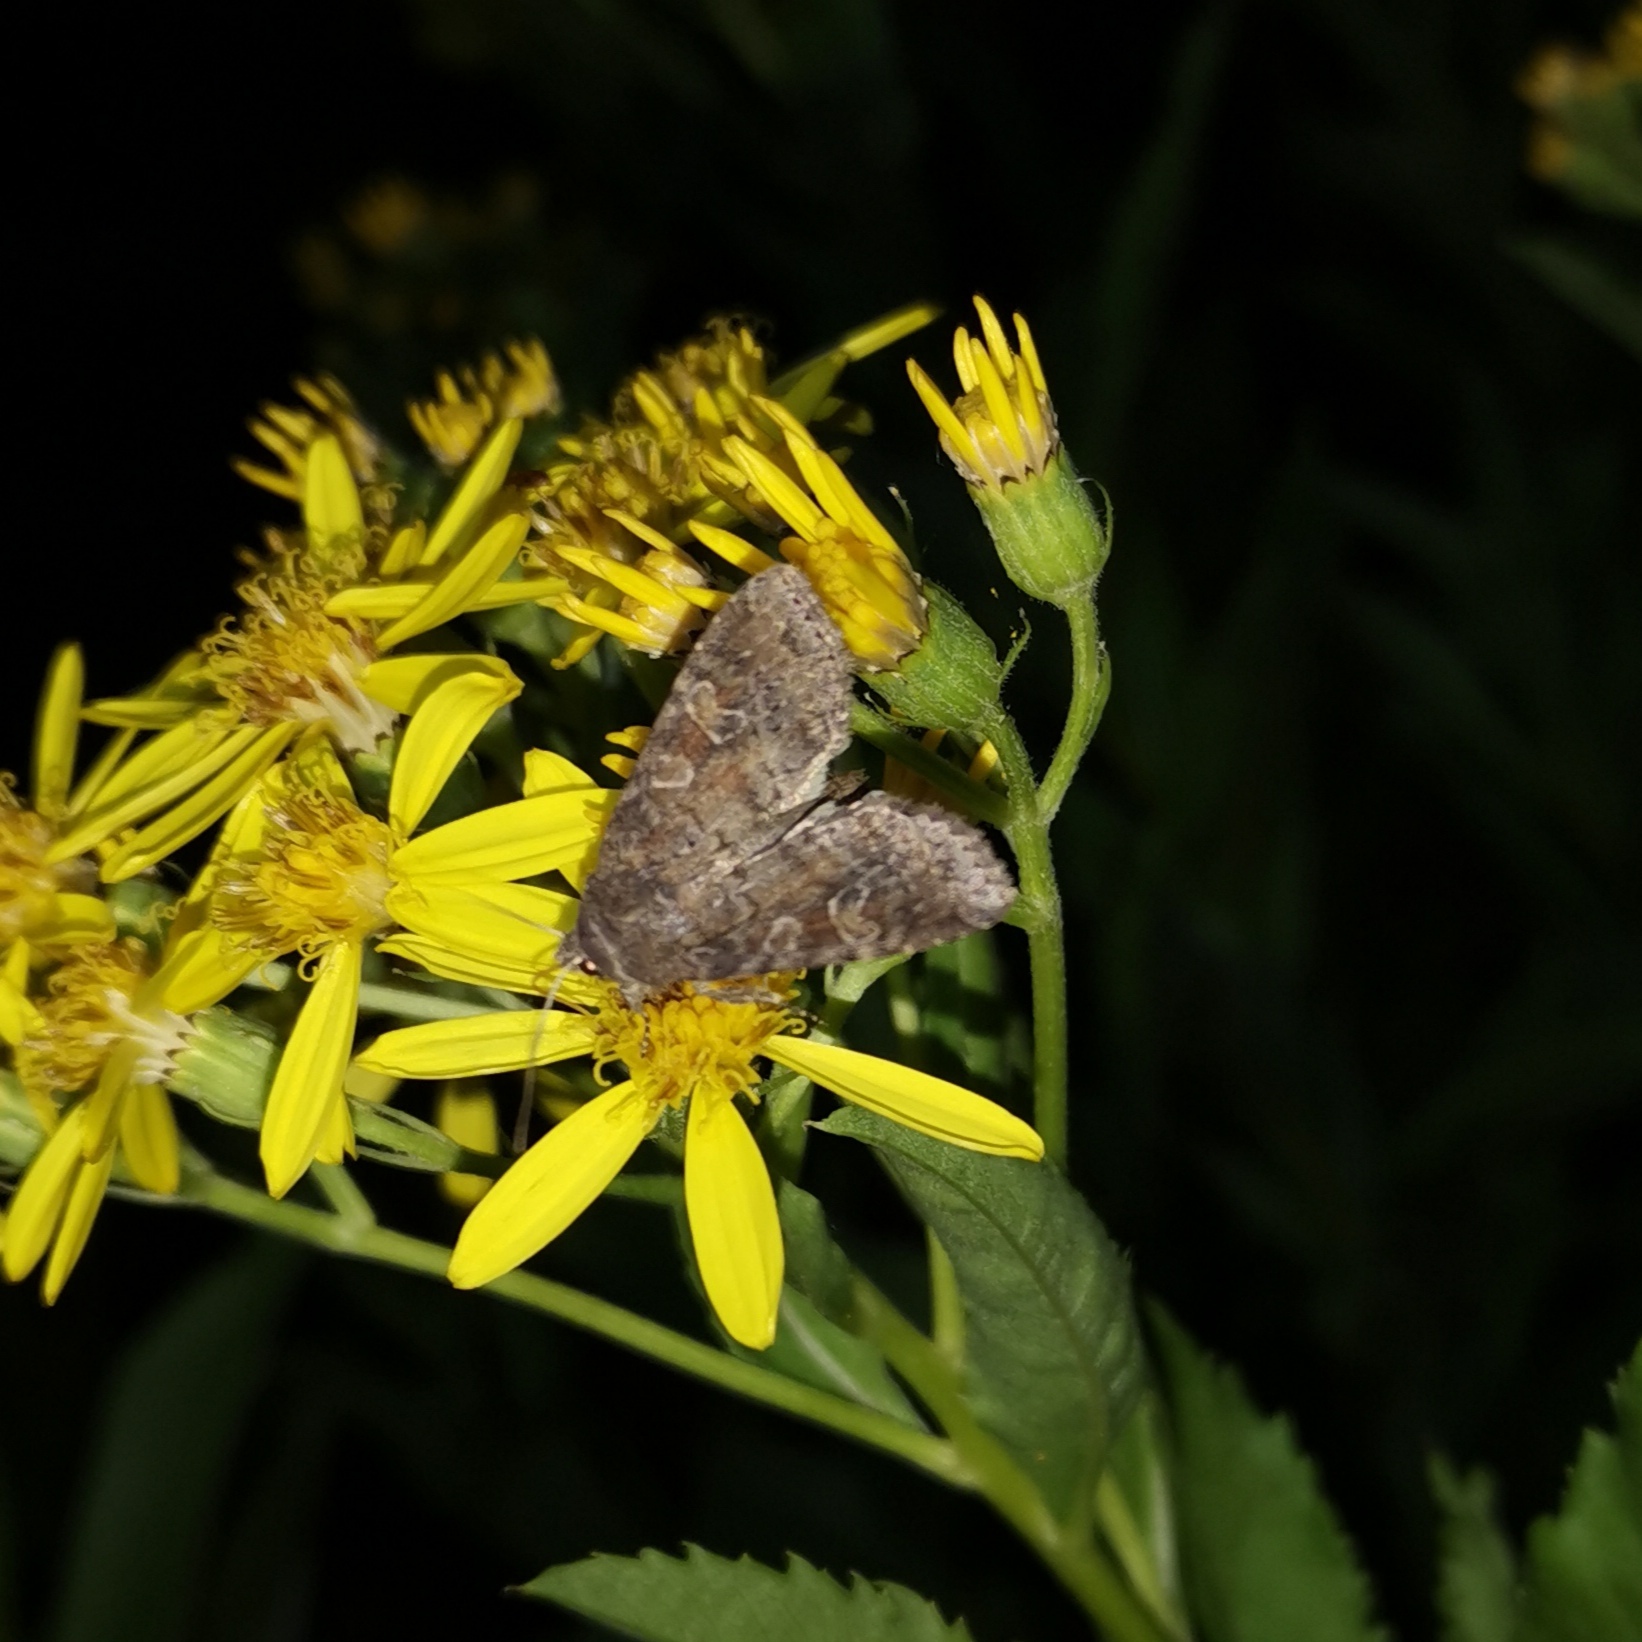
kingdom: Animalia
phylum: Arthropoda
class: Insecta
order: Lepidoptera
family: Noctuidae
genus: Parastichtis
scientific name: Parastichtis suspecta
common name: Suspected
